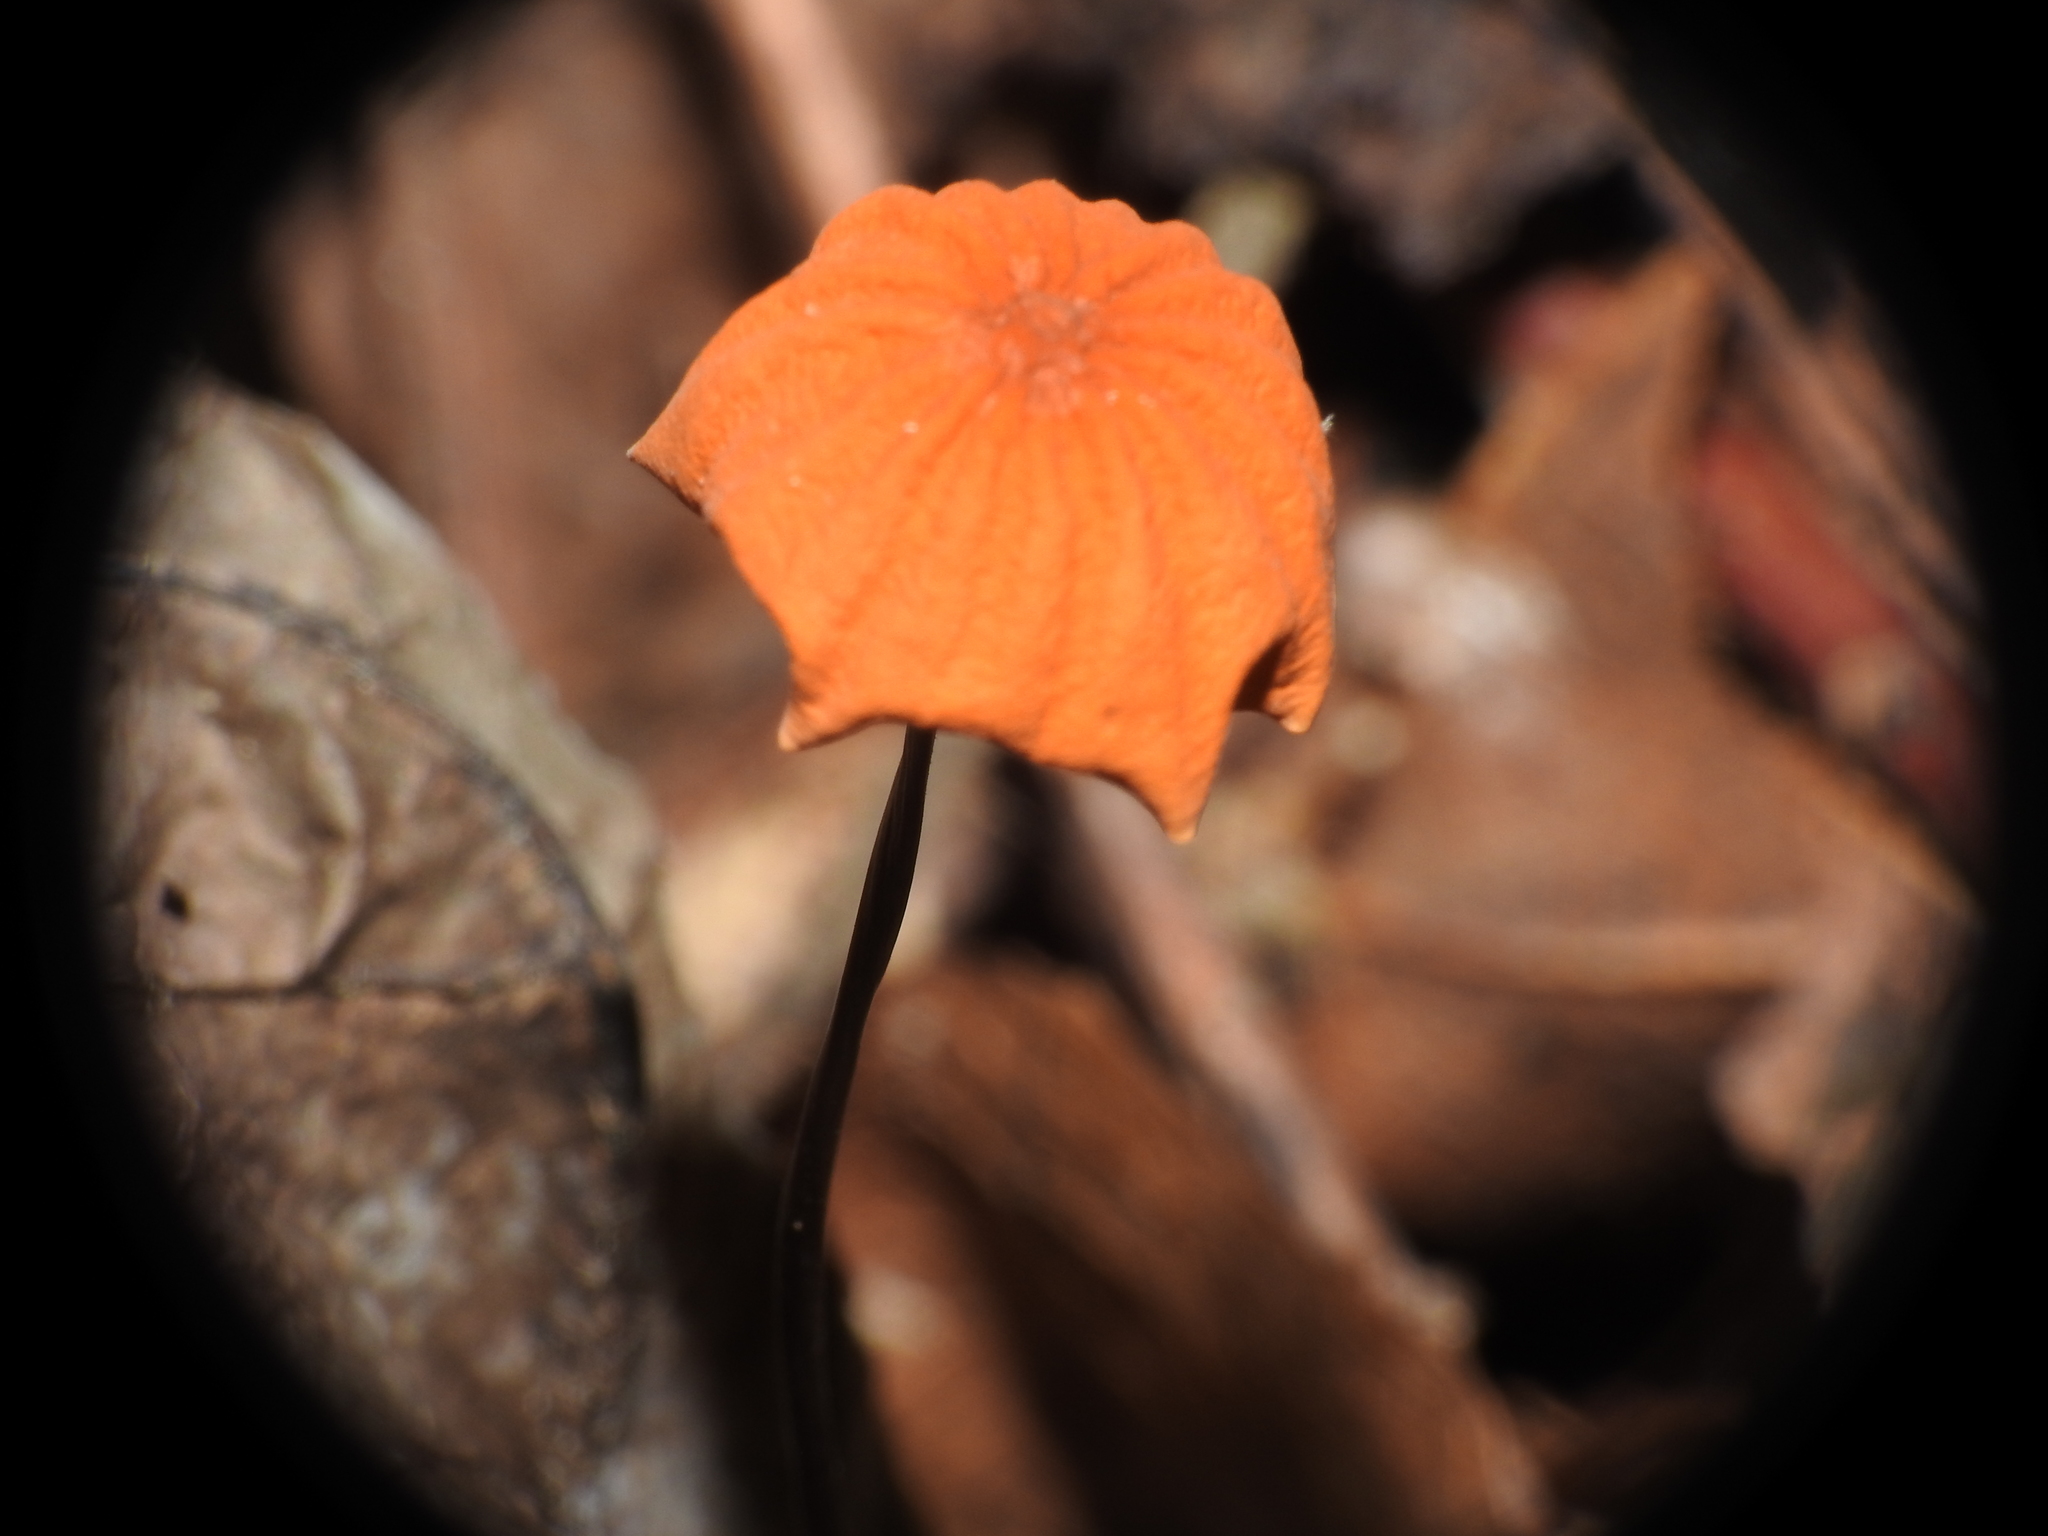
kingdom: Fungi
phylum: Basidiomycota
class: Agaricomycetes
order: Agaricales
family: Marasmiaceae
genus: Marasmius
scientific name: Marasmius siccus
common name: Orange pinwheel
